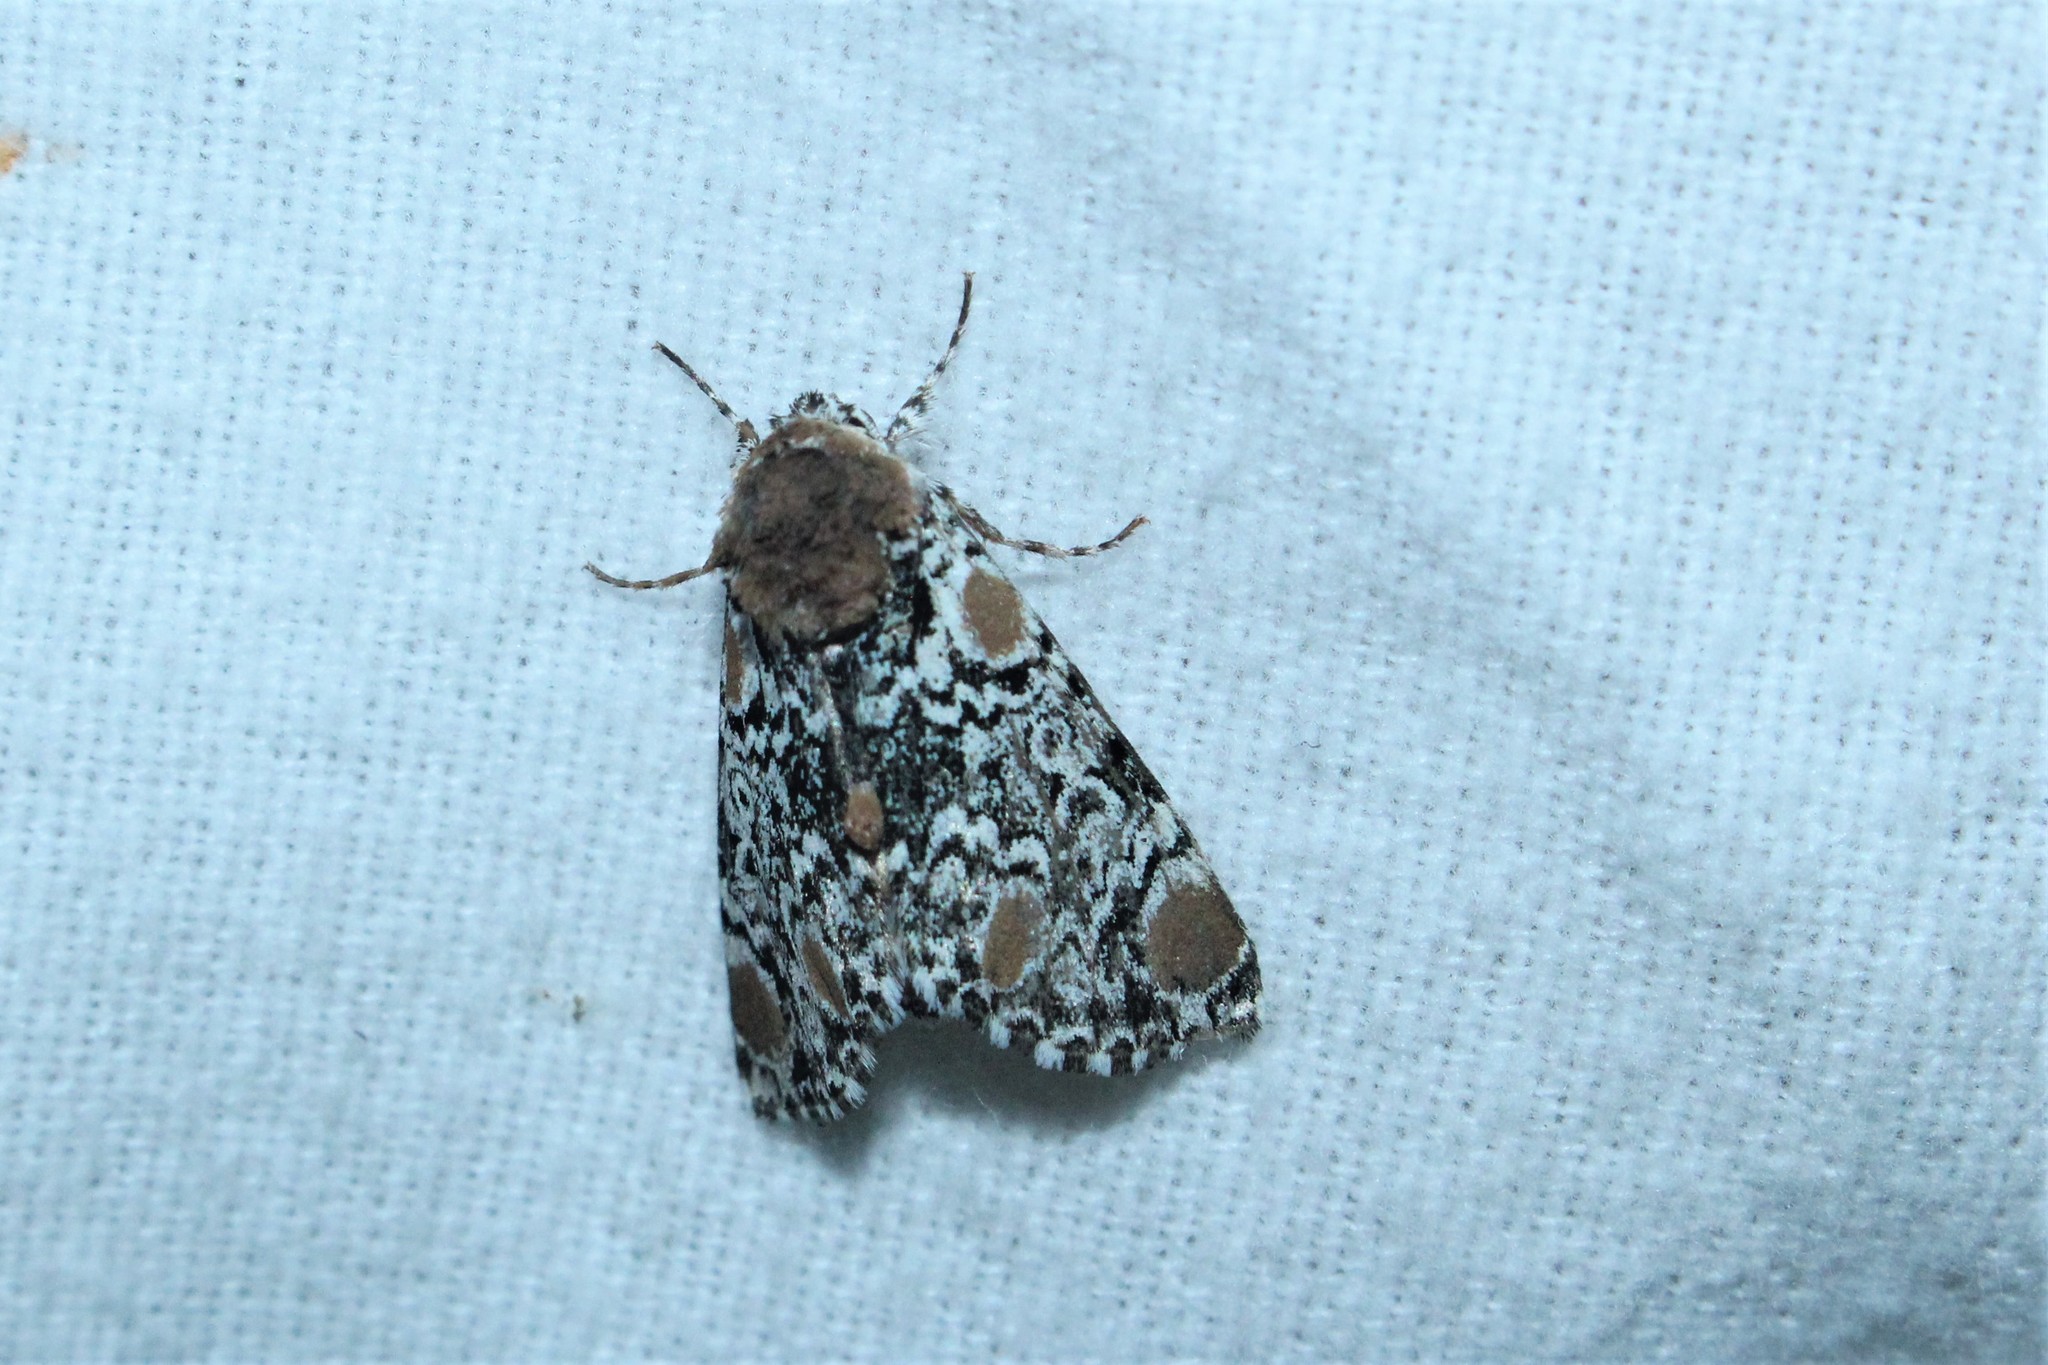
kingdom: Animalia
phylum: Arthropoda
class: Insecta
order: Lepidoptera
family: Noctuidae
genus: Harrisimemna
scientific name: Harrisimemna trisignata
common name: Harris threespot
